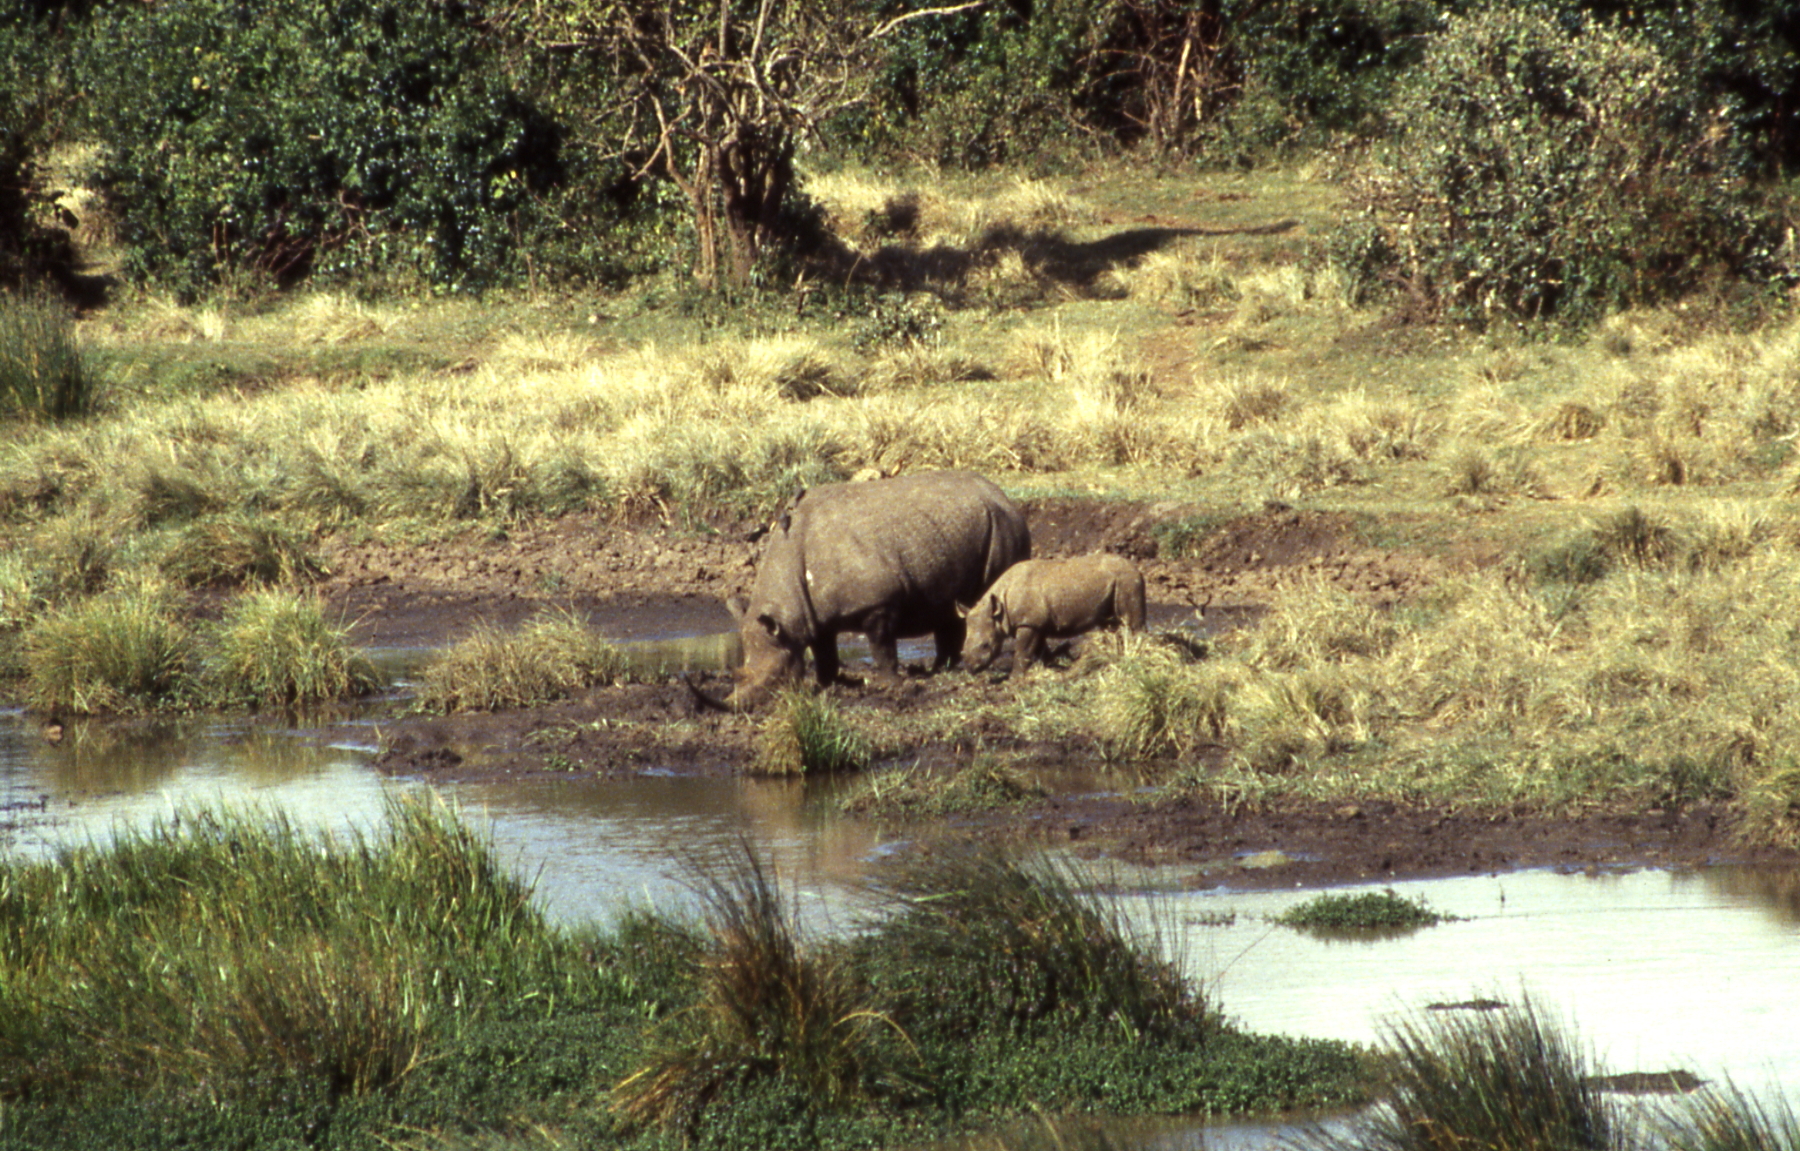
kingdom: Animalia
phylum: Chordata
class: Mammalia
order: Perissodactyla
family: Rhinocerotidae
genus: Diceros
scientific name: Diceros bicornis
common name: Black rhinoceros
